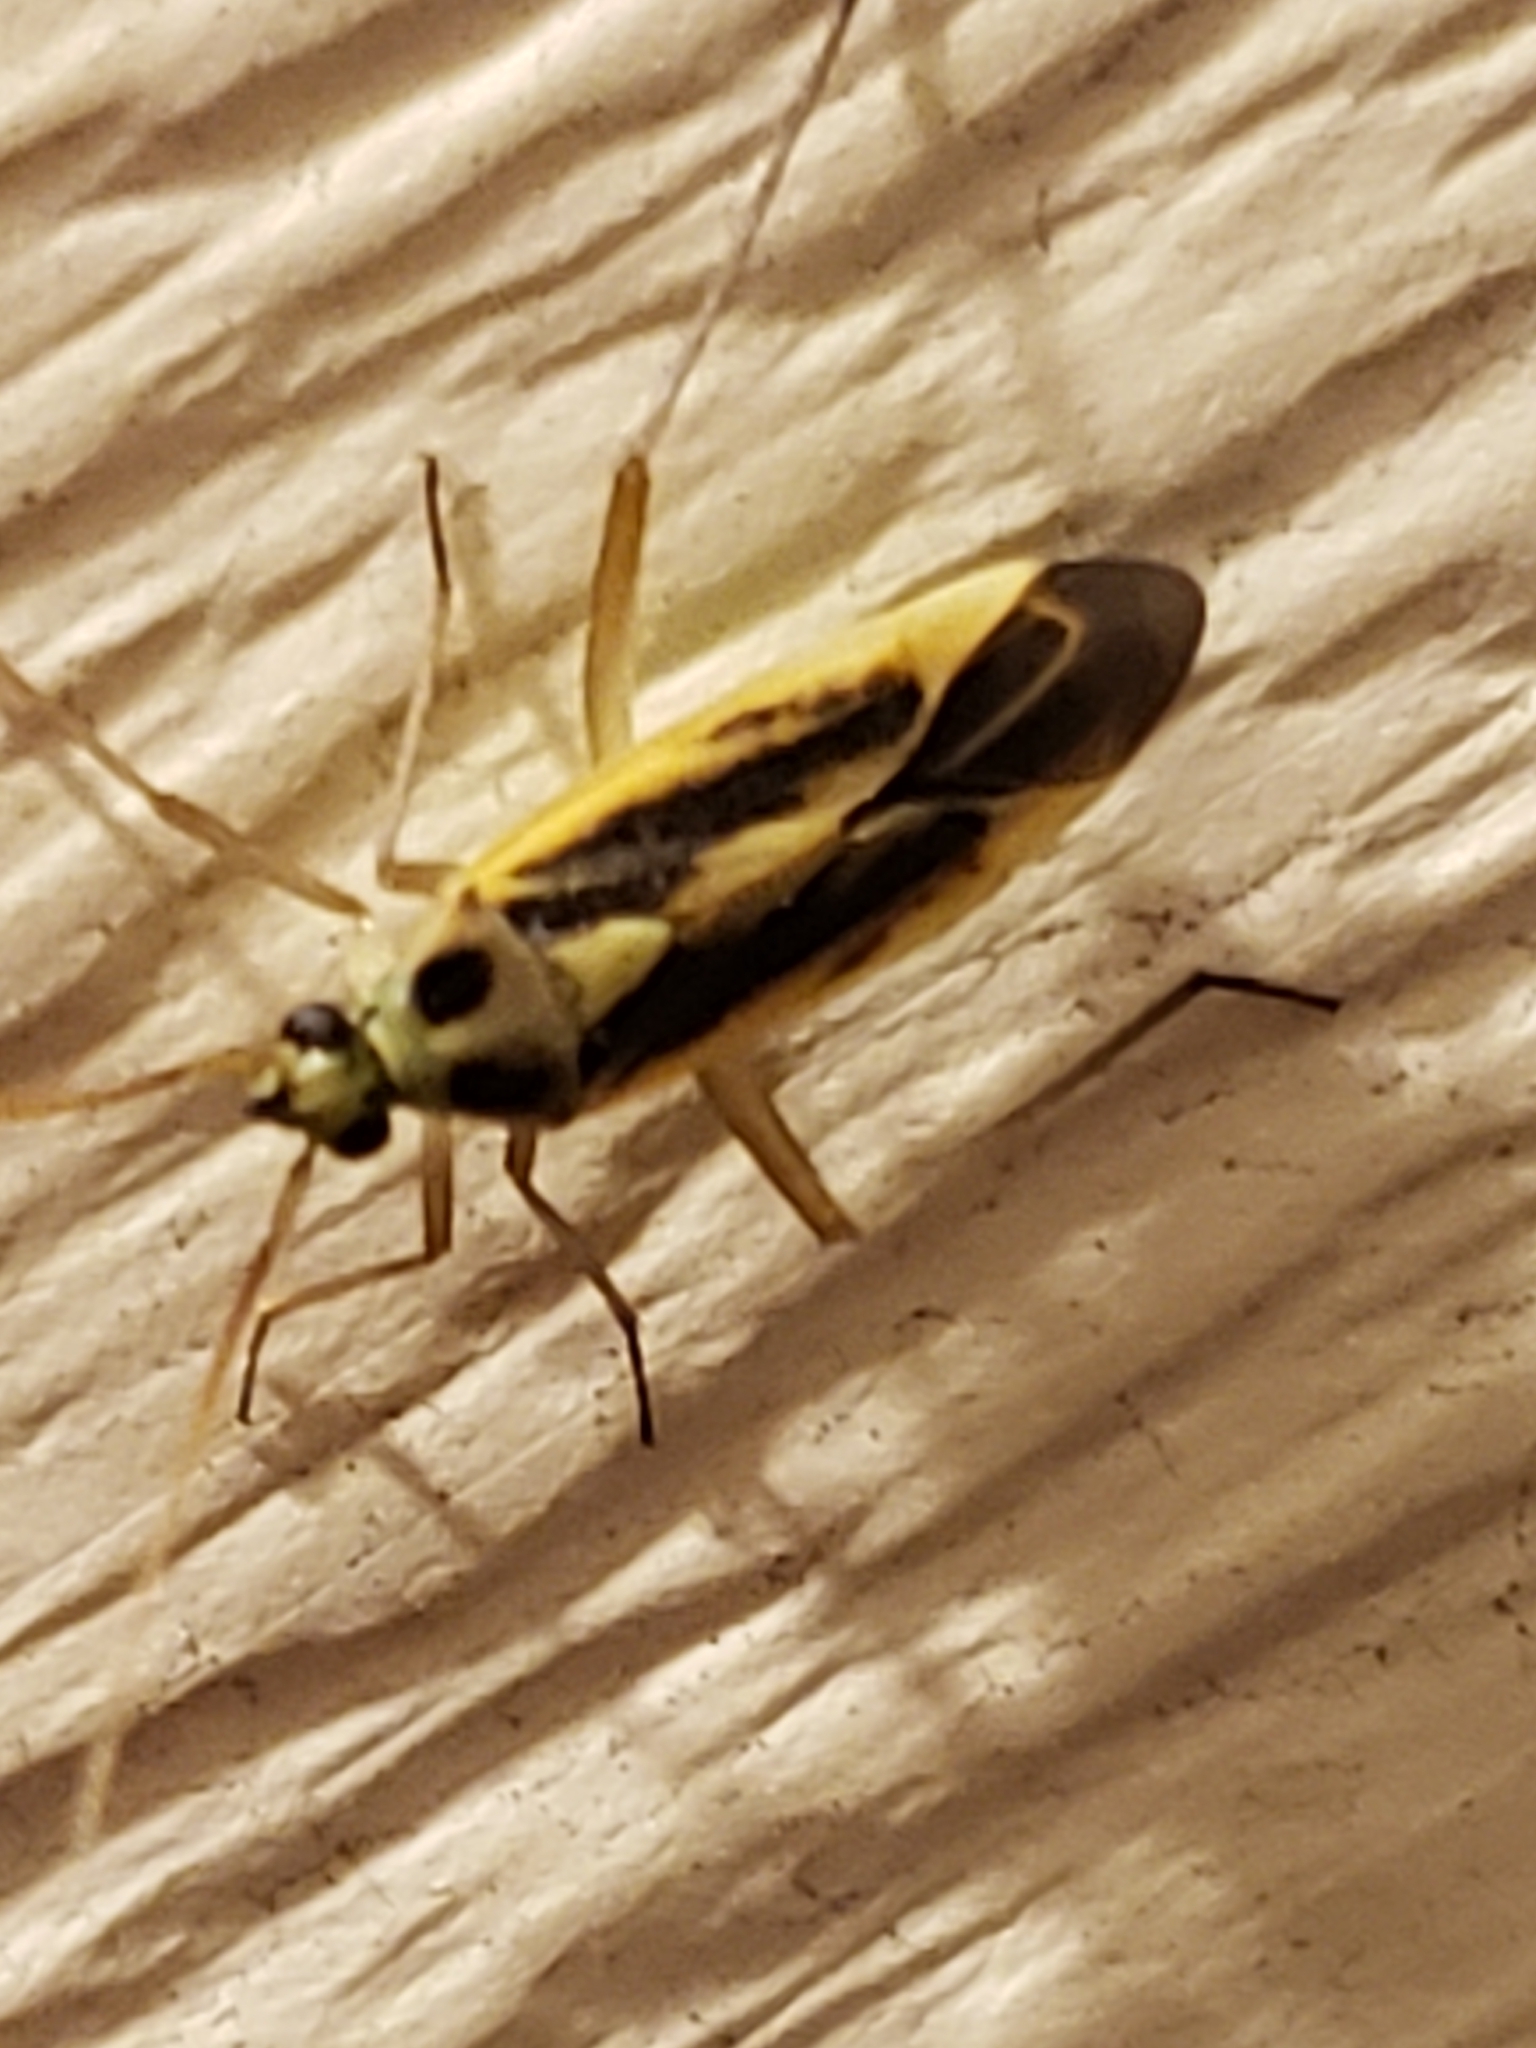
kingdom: Animalia
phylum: Arthropoda
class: Insecta
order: Hemiptera
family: Miridae
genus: Stenotus
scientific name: Stenotus binotatus
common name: Plant bug
